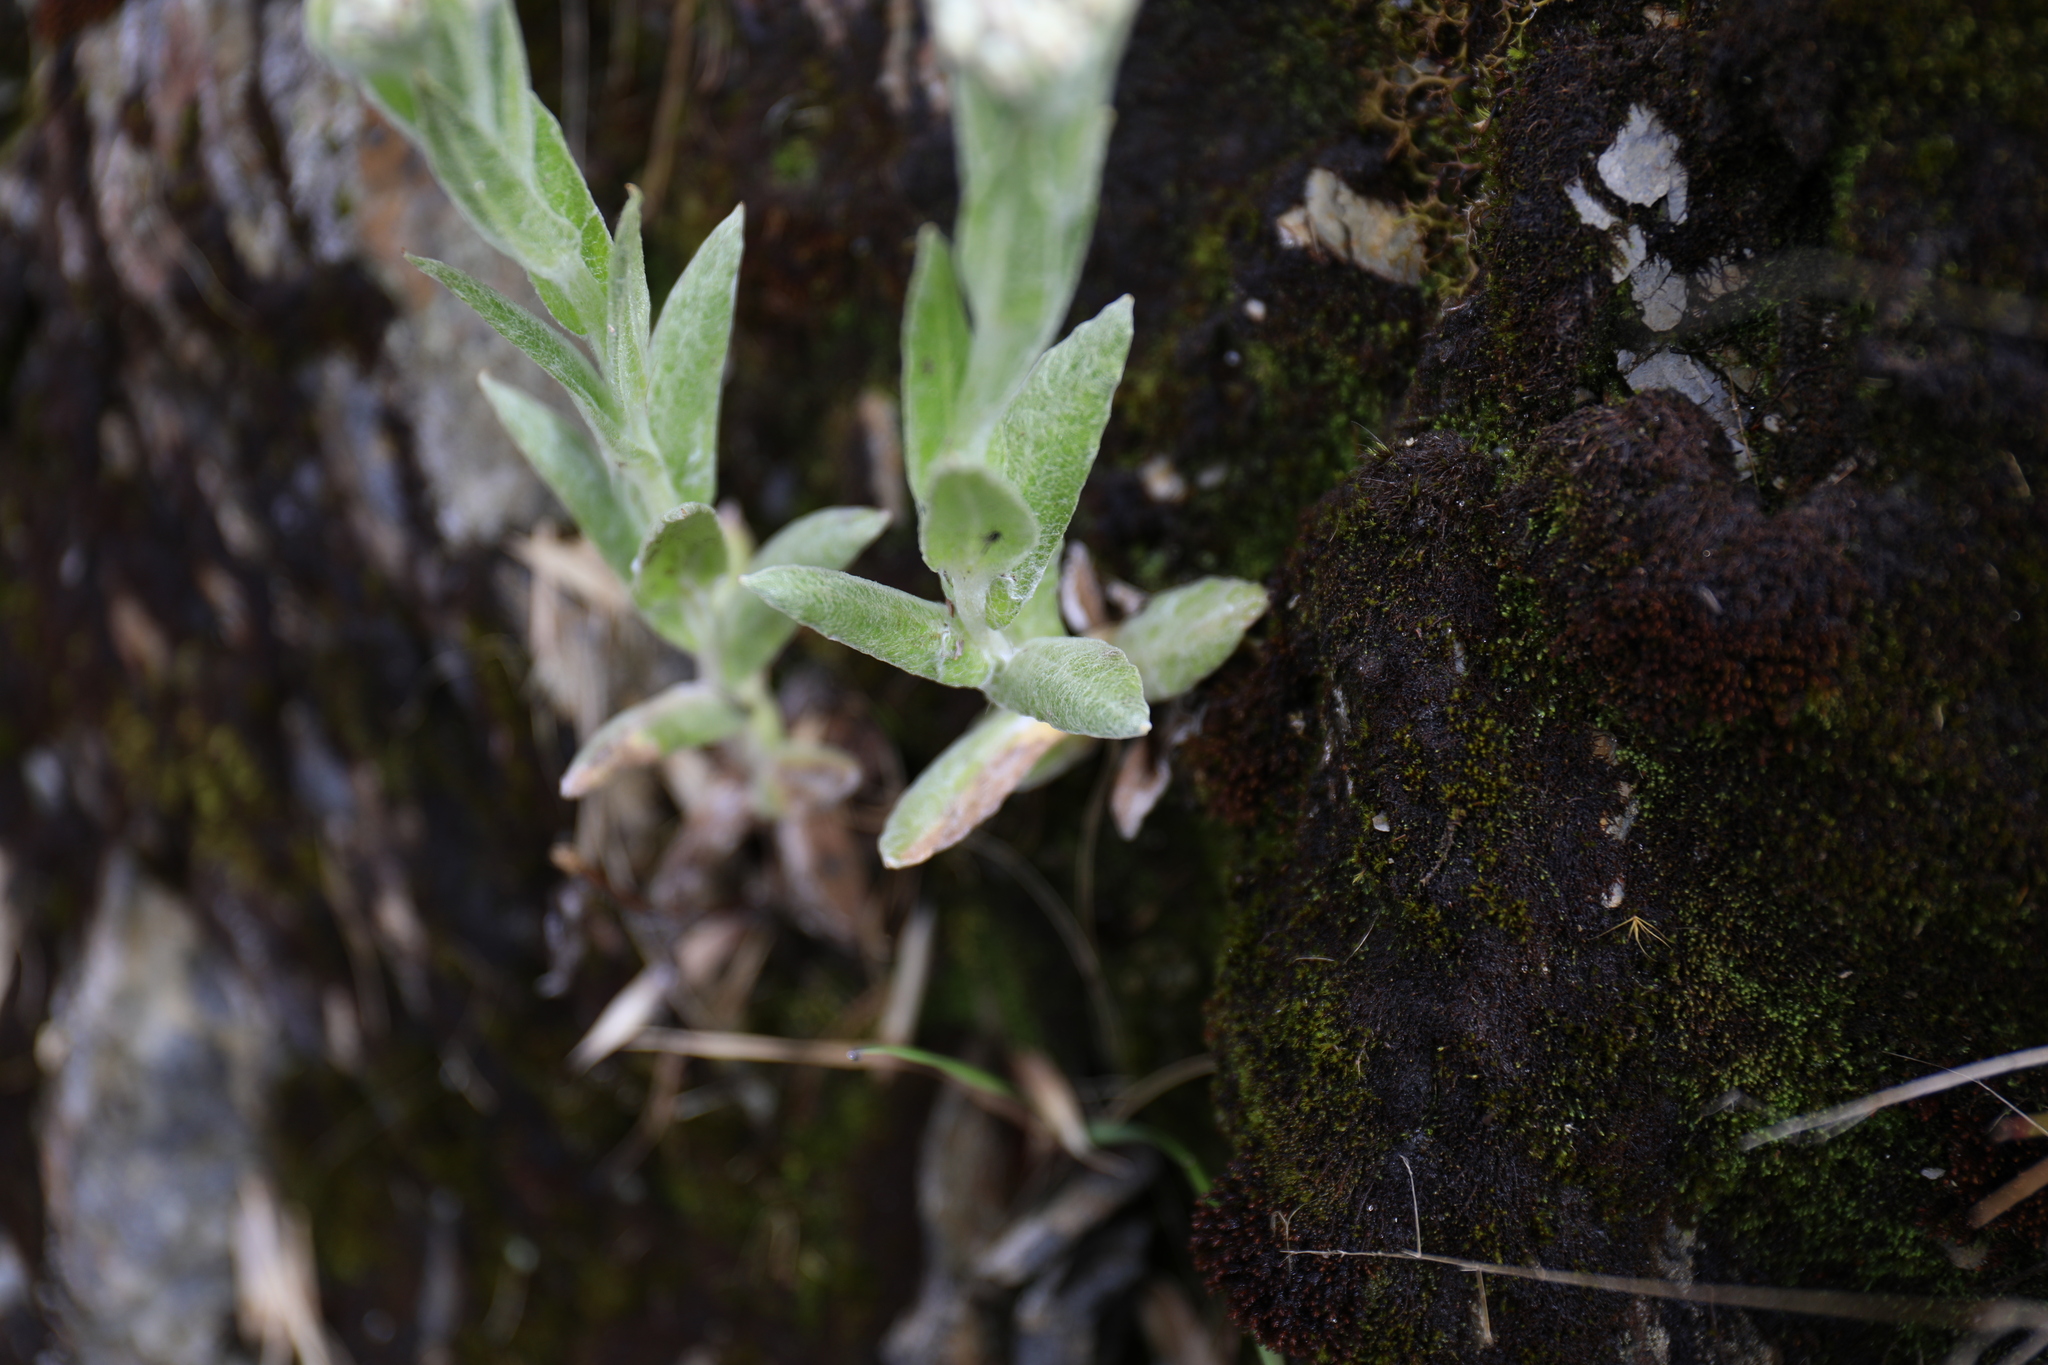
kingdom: Plantae
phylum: Tracheophyta
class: Magnoliopsida
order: Asterales
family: Asteraceae
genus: Anaphalis
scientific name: Anaphalis royleana
